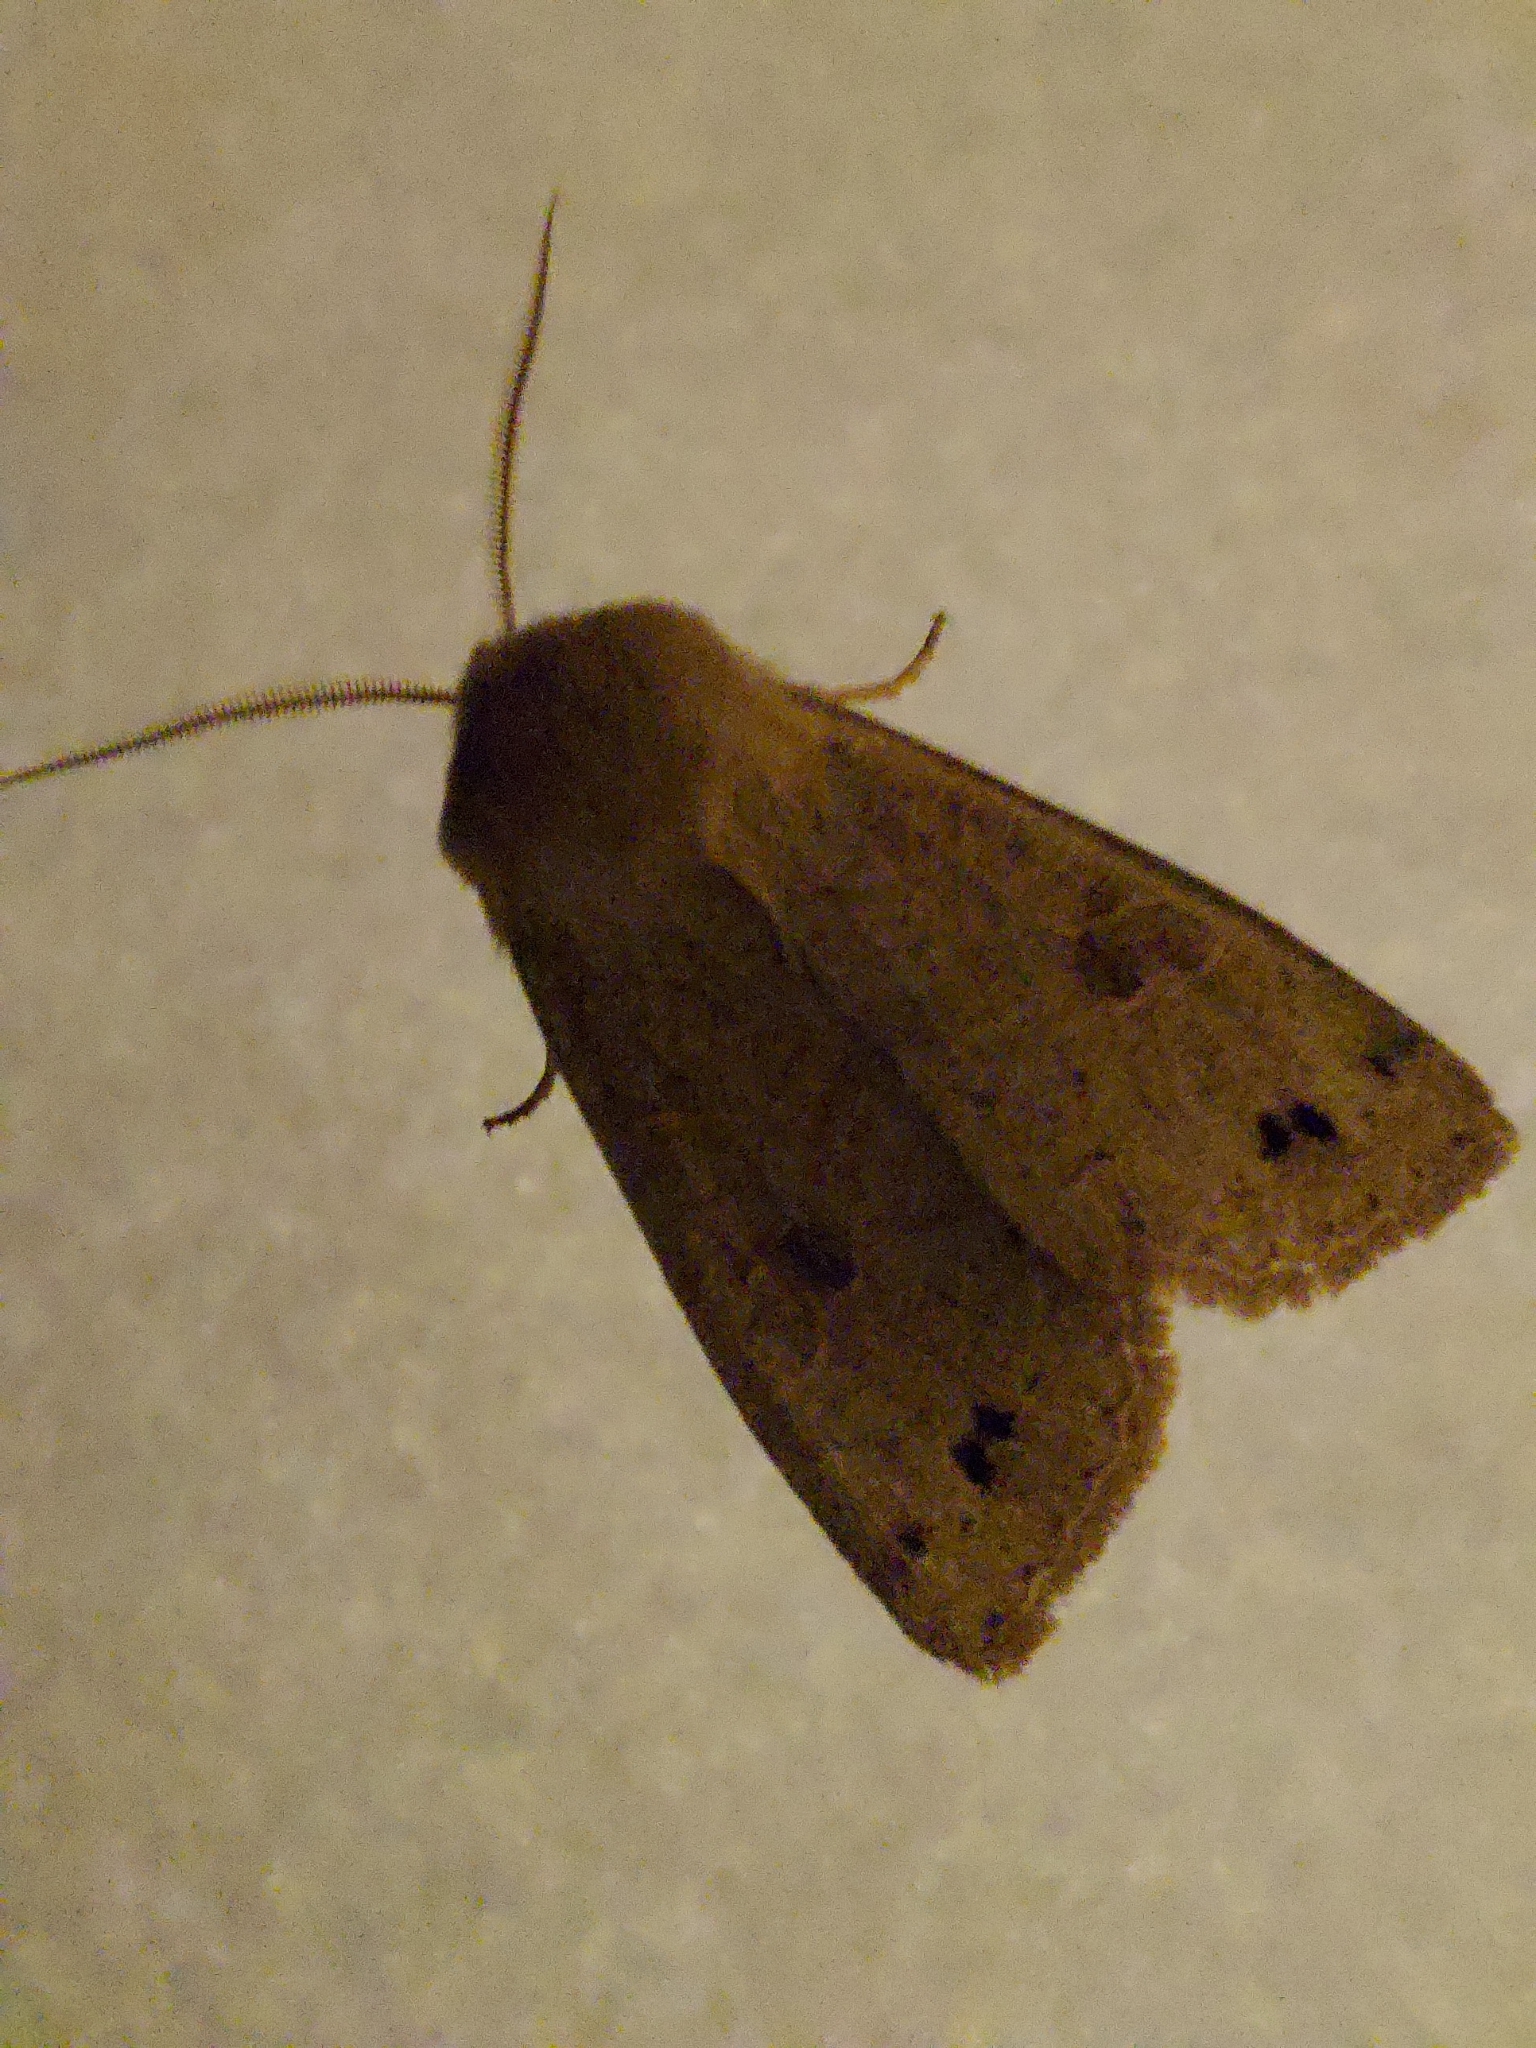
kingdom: Animalia
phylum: Arthropoda
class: Insecta
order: Lepidoptera
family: Noctuidae
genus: Anorthoa
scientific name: Anorthoa munda
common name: Twin-spotted quaker
